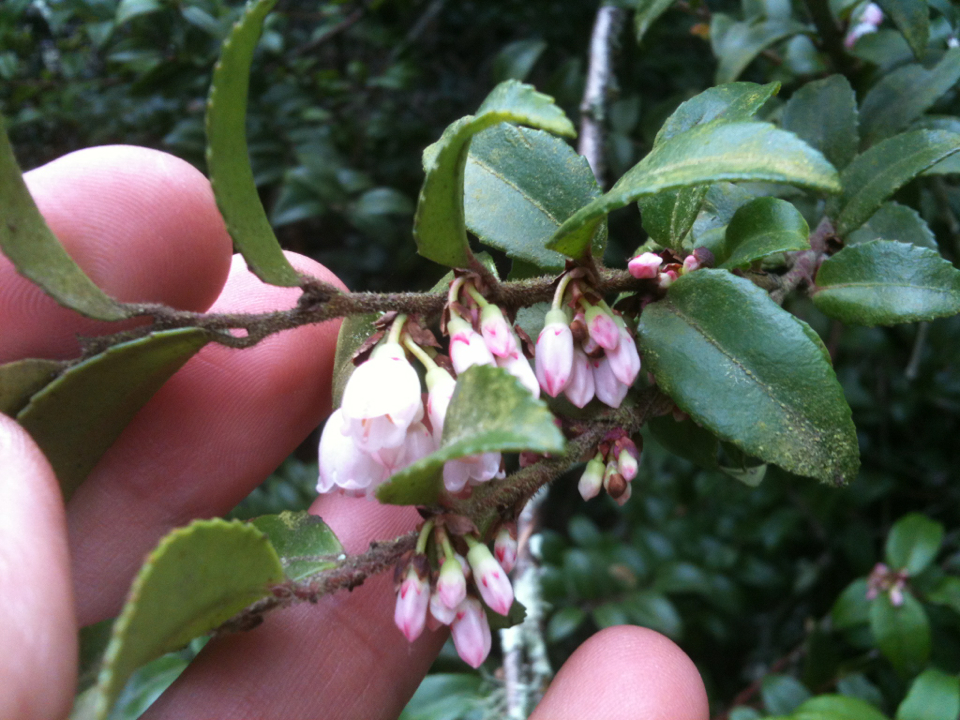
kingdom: Plantae
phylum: Tracheophyta
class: Magnoliopsida
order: Ericales
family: Ericaceae
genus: Vaccinium
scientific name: Vaccinium ovatum
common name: California-huckleberry
